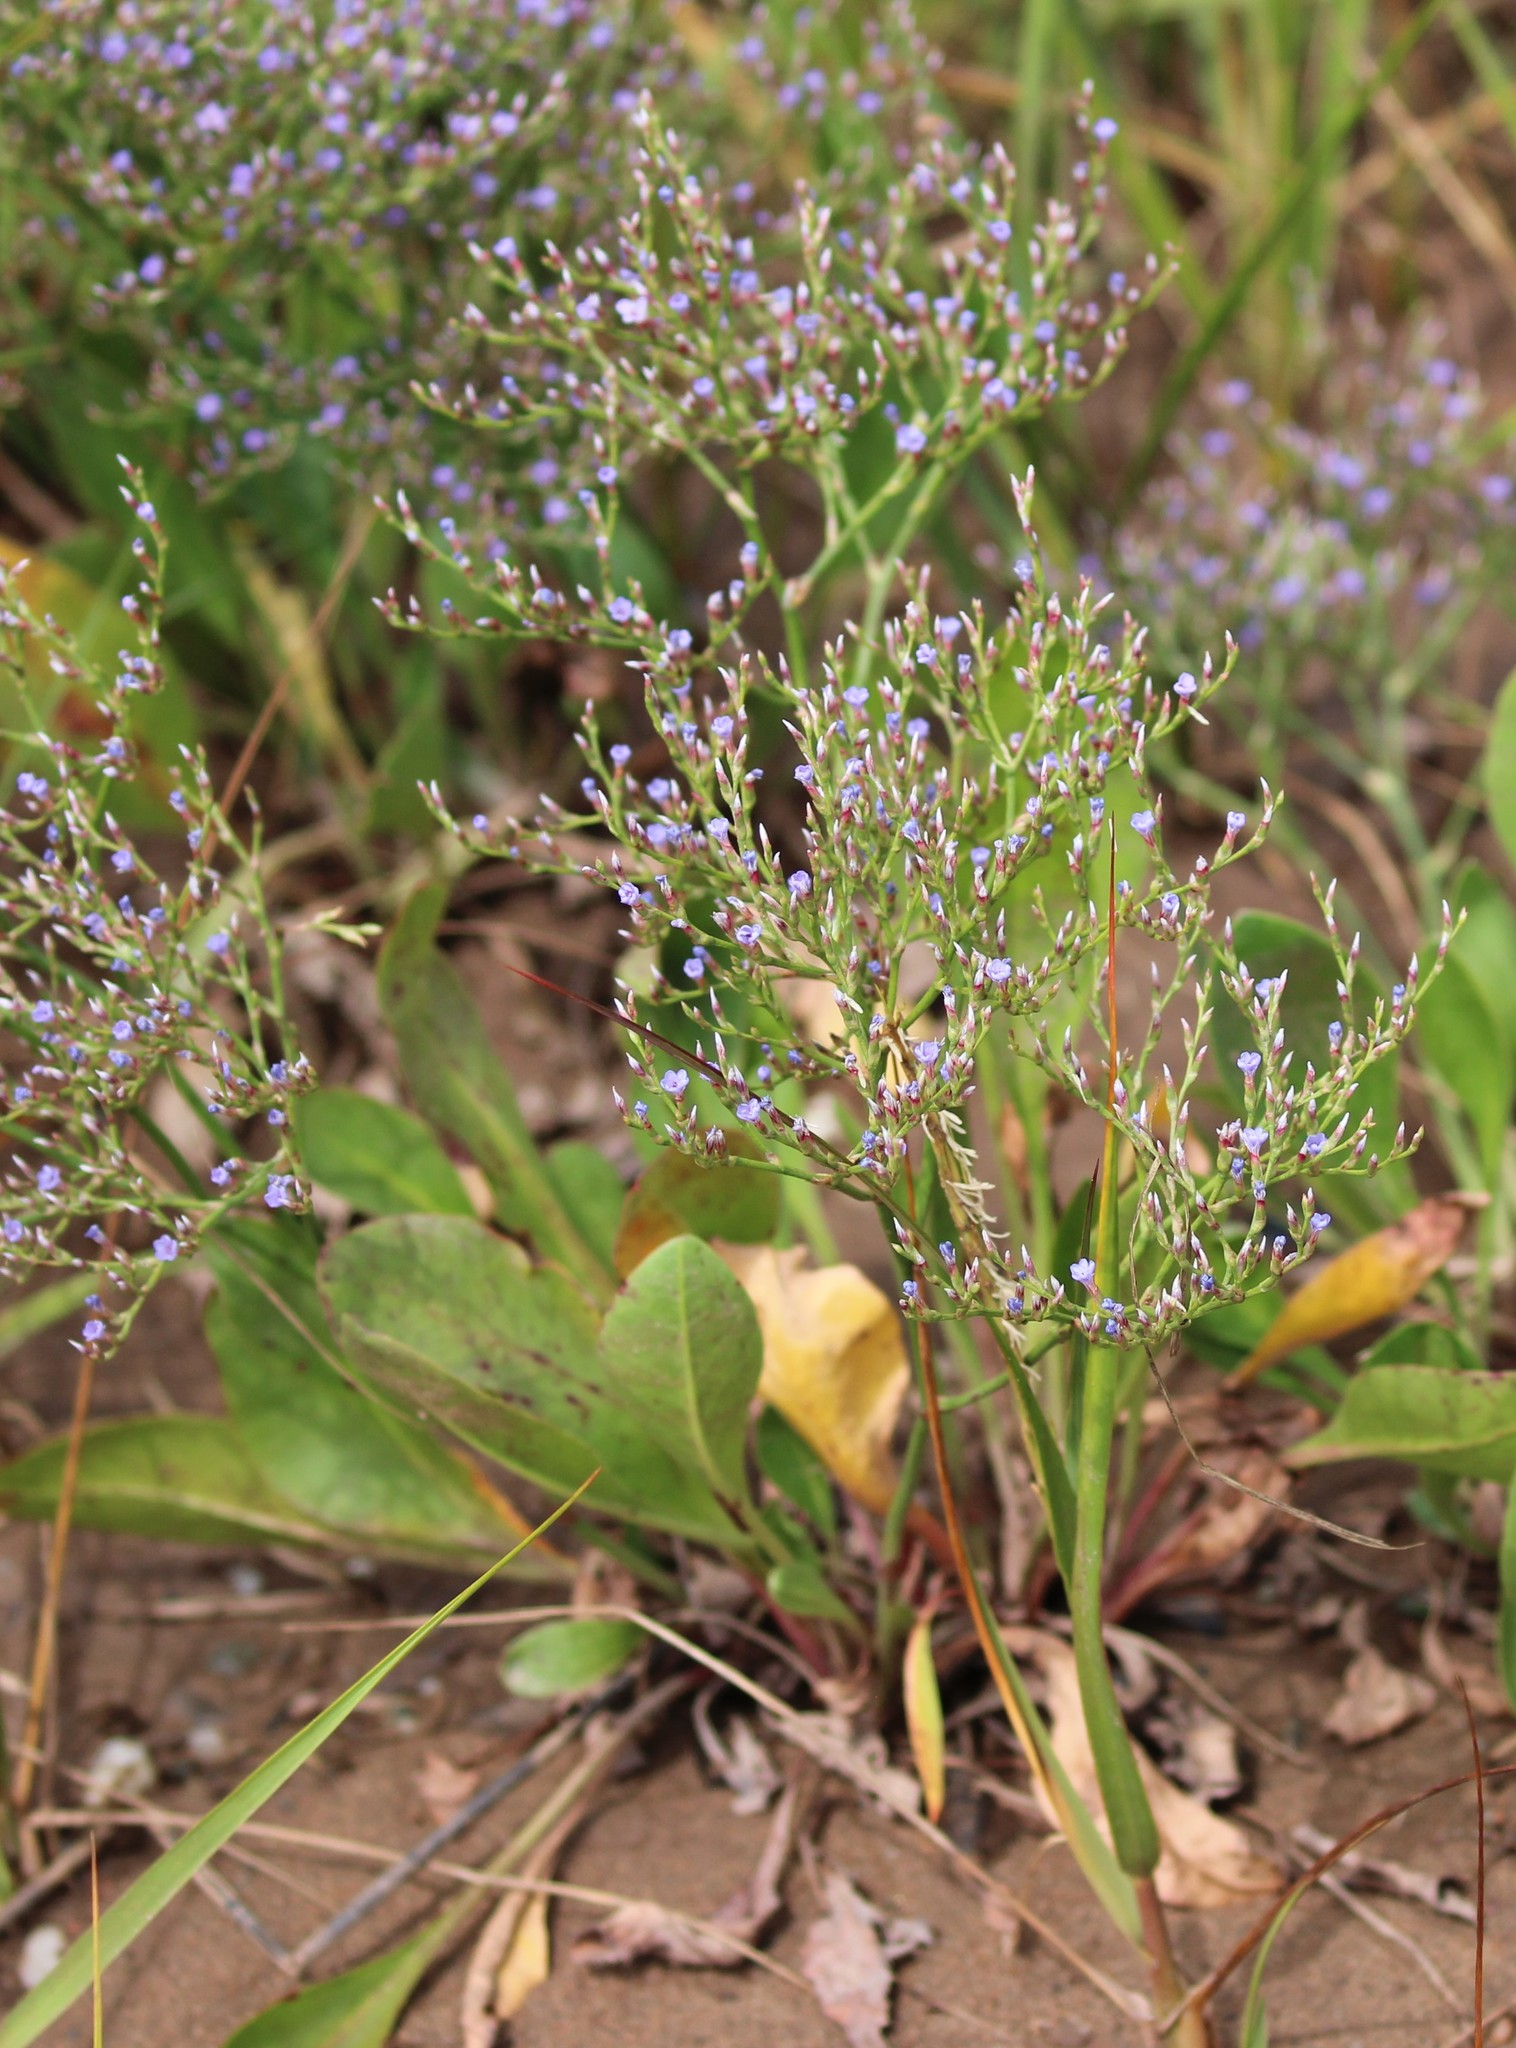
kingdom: Plantae
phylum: Tracheophyta
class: Magnoliopsida
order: Caryophyllales
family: Plumbaginaceae
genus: Limonium
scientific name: Limonium carolinianum
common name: Carolina sea lavender
